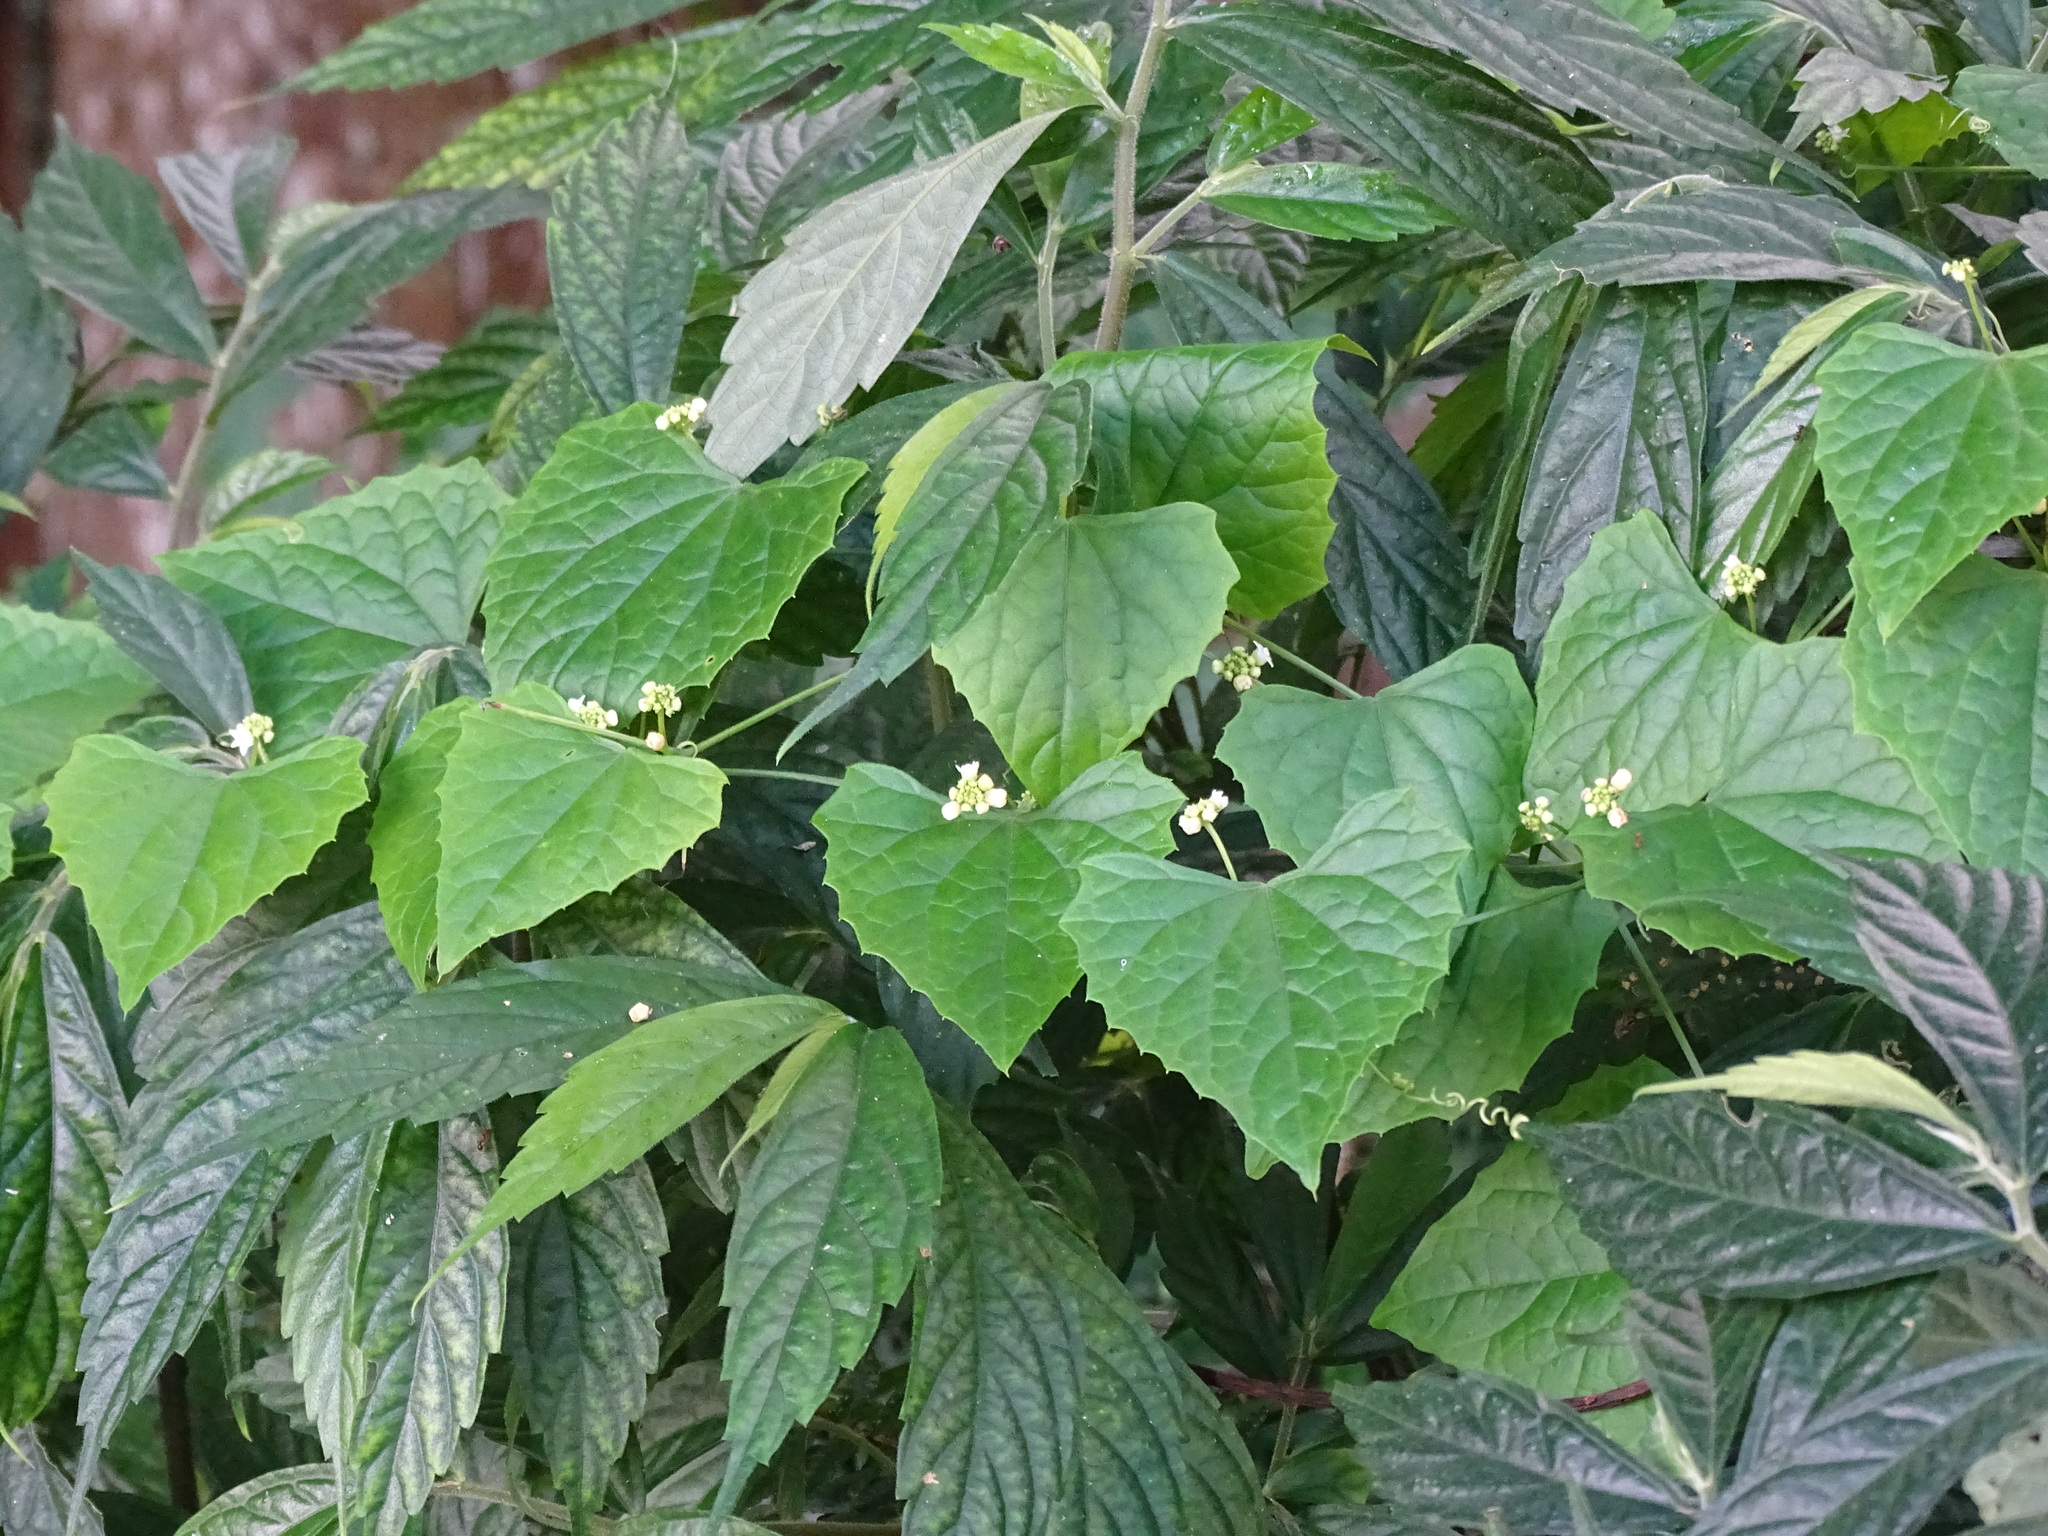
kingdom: Plantae
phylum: Tracheophyta
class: Magnoliopsida
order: Cucurbitales
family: Cucurbitaceae
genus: Zehneria
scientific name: Zehneria guamensis
